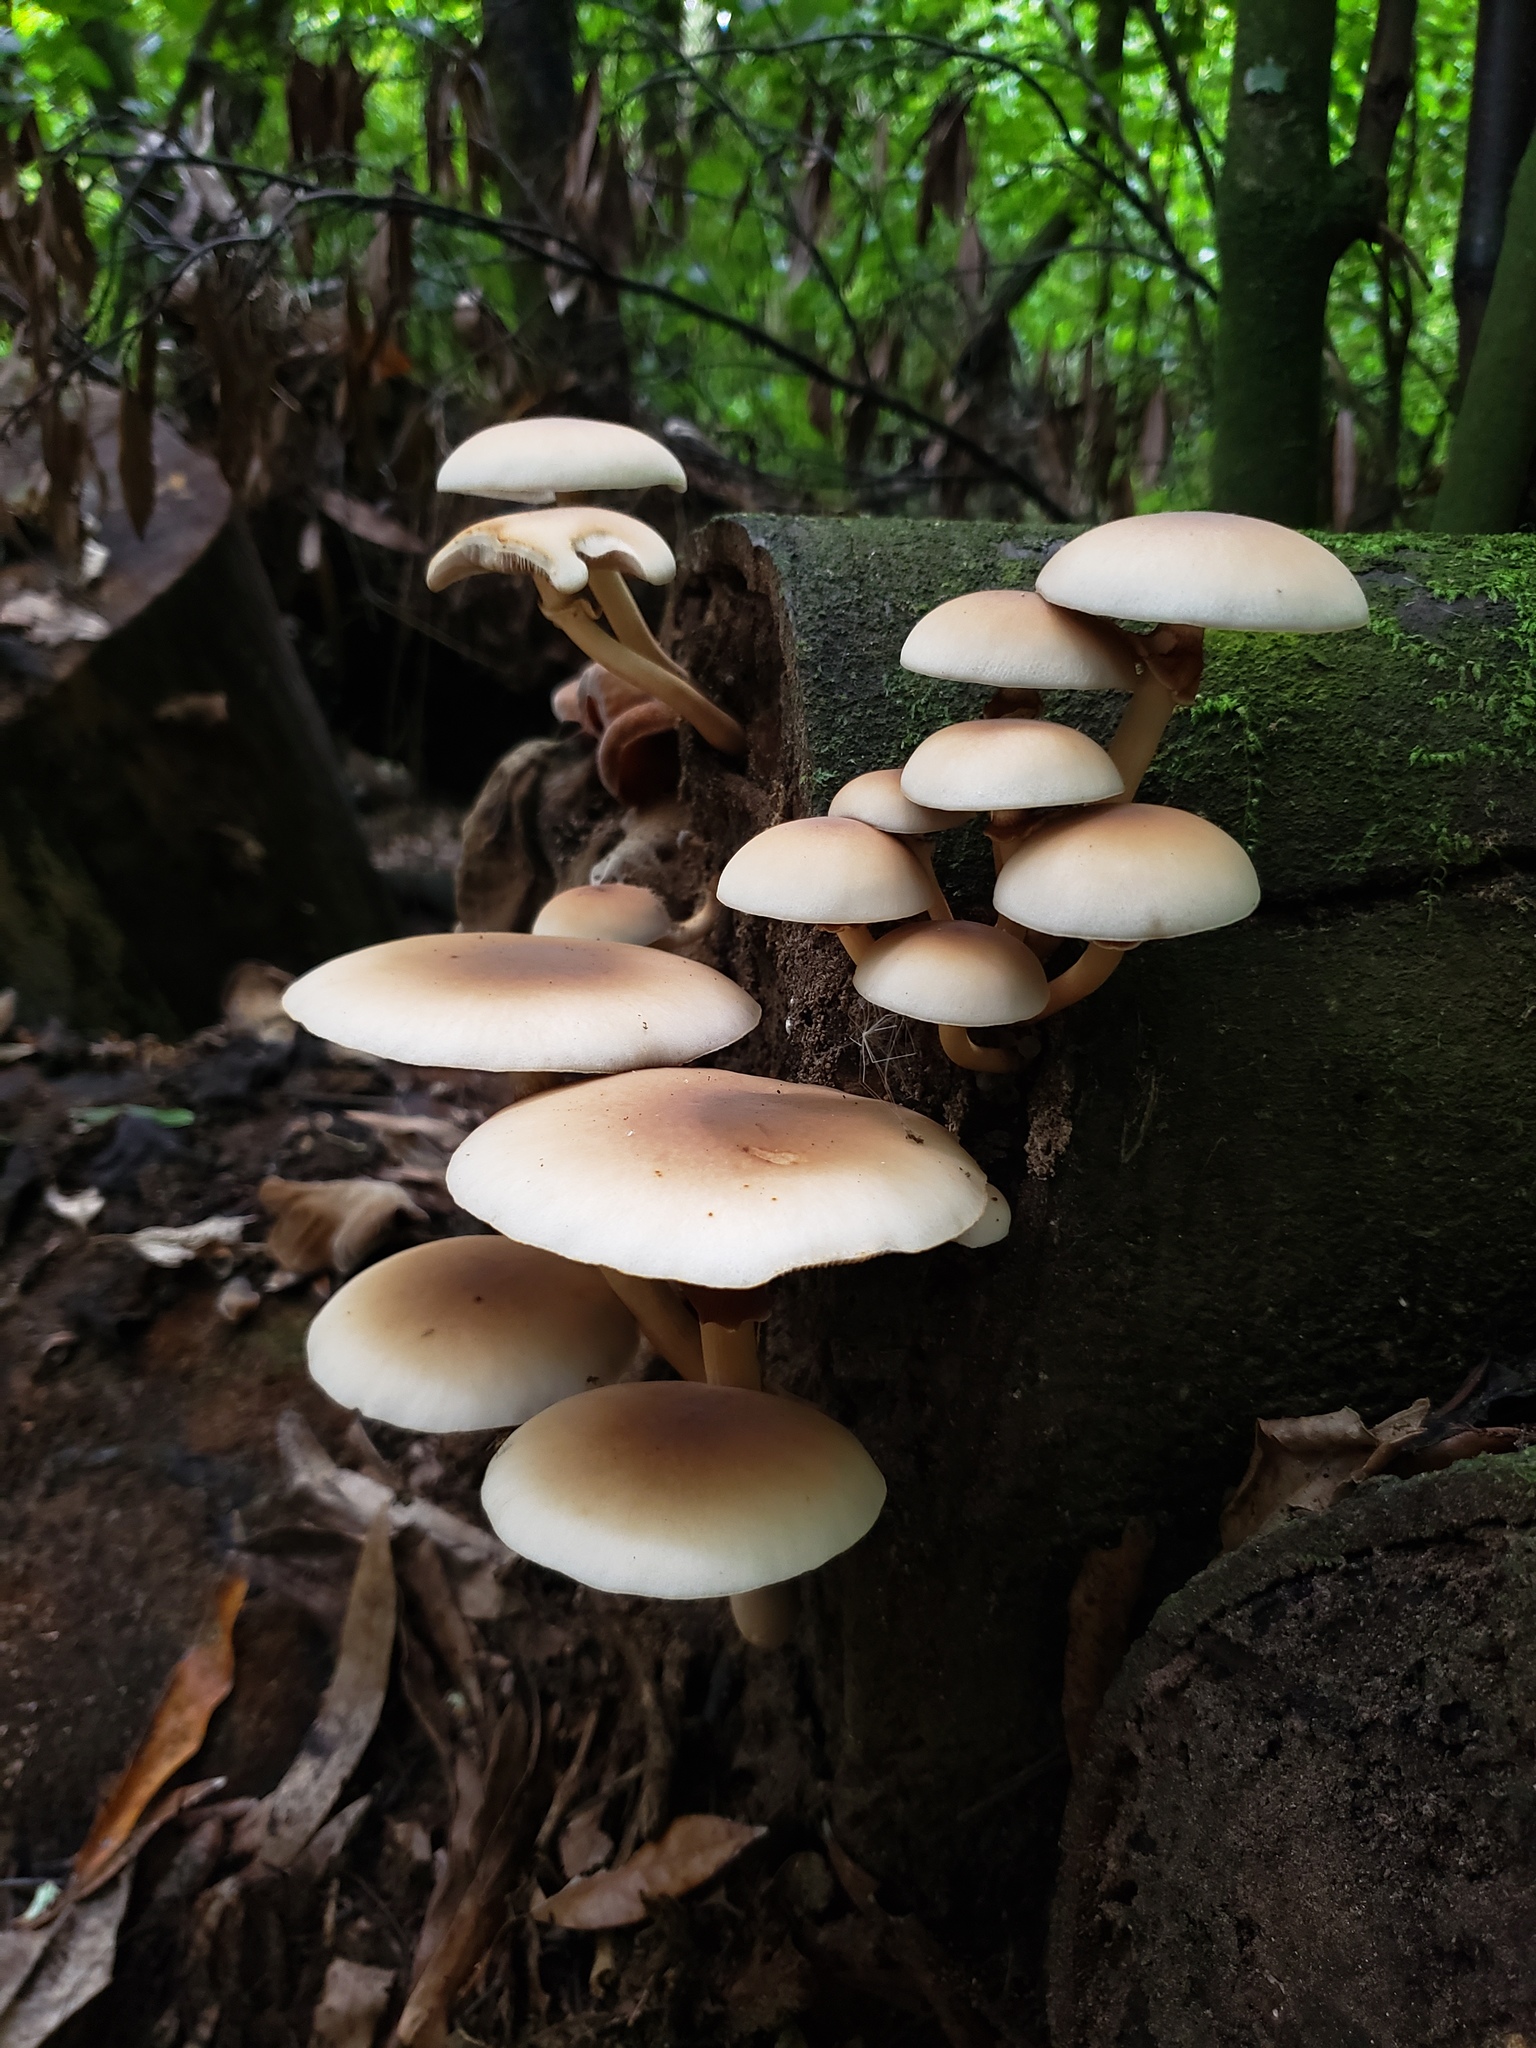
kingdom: Fungi
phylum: Basidiomycota
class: Agaricomycetes
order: Agaricales
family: Tubariaceae
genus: Cyclocybe
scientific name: Cyclocybe parasitica
